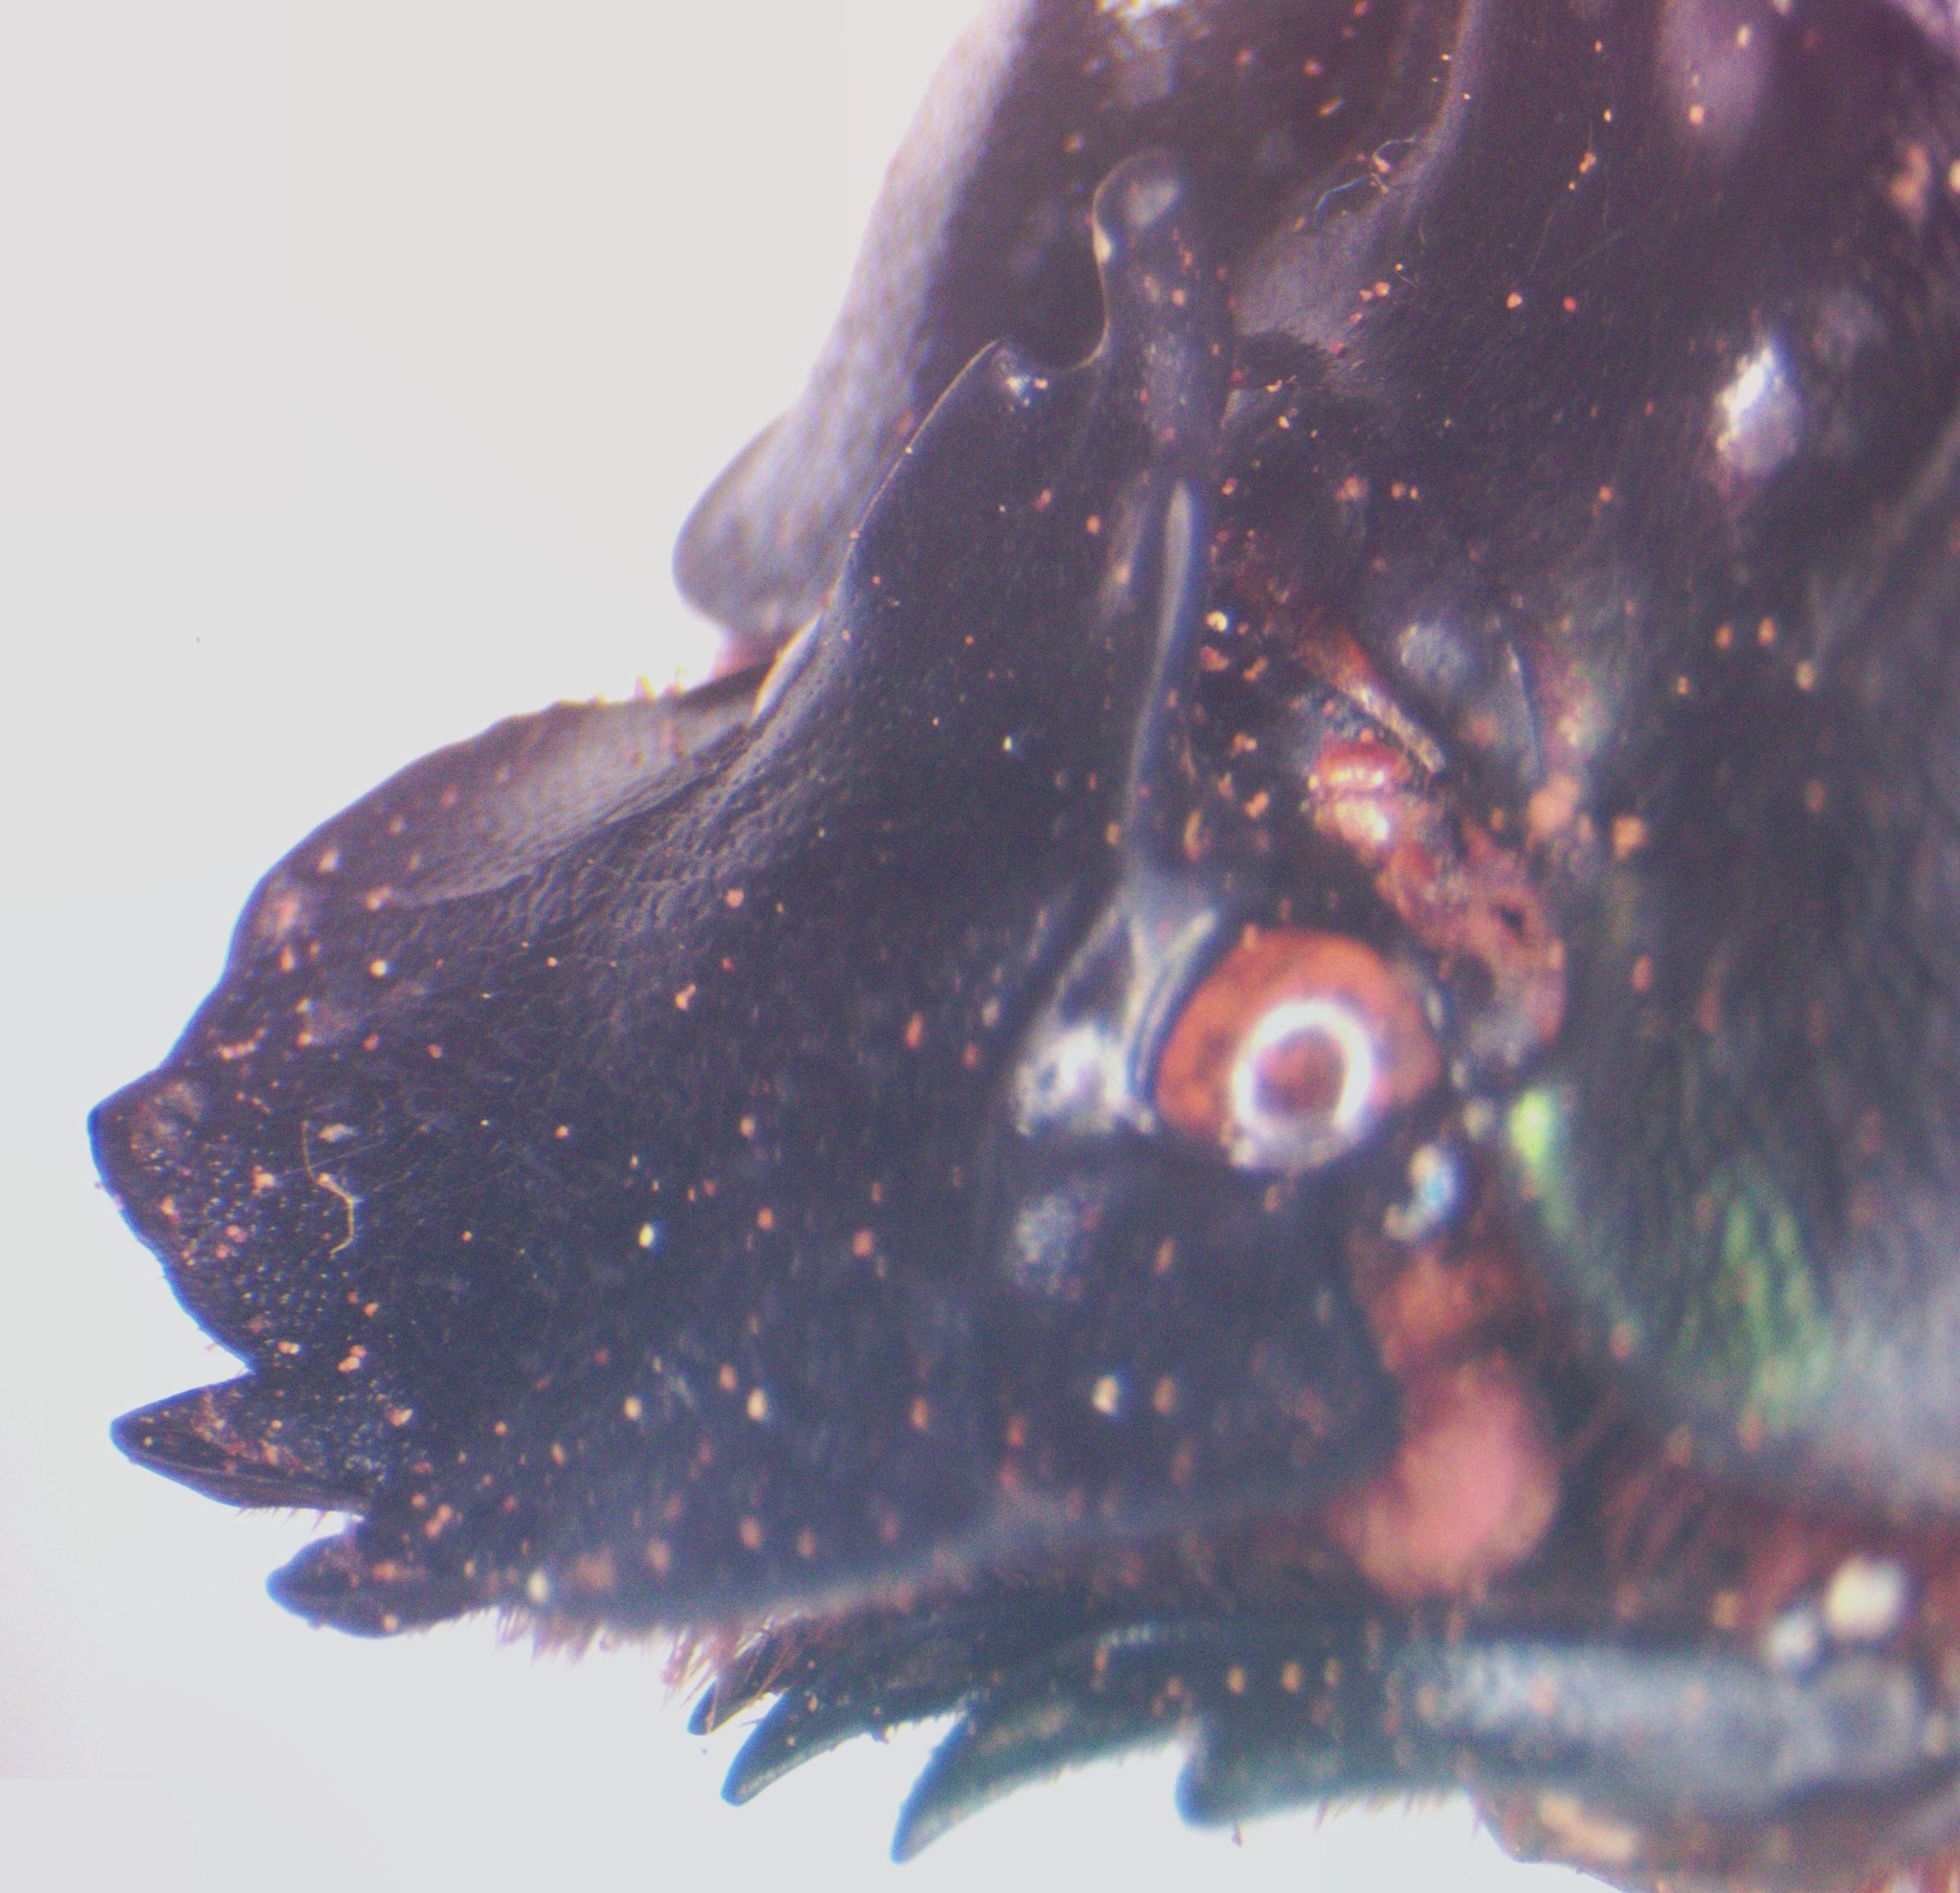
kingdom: Animalia
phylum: Arthropoda
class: Insecta
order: Coleoptera
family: Scarabaeidae
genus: Coprophanaeus
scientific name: Coprophanaeus corythus
